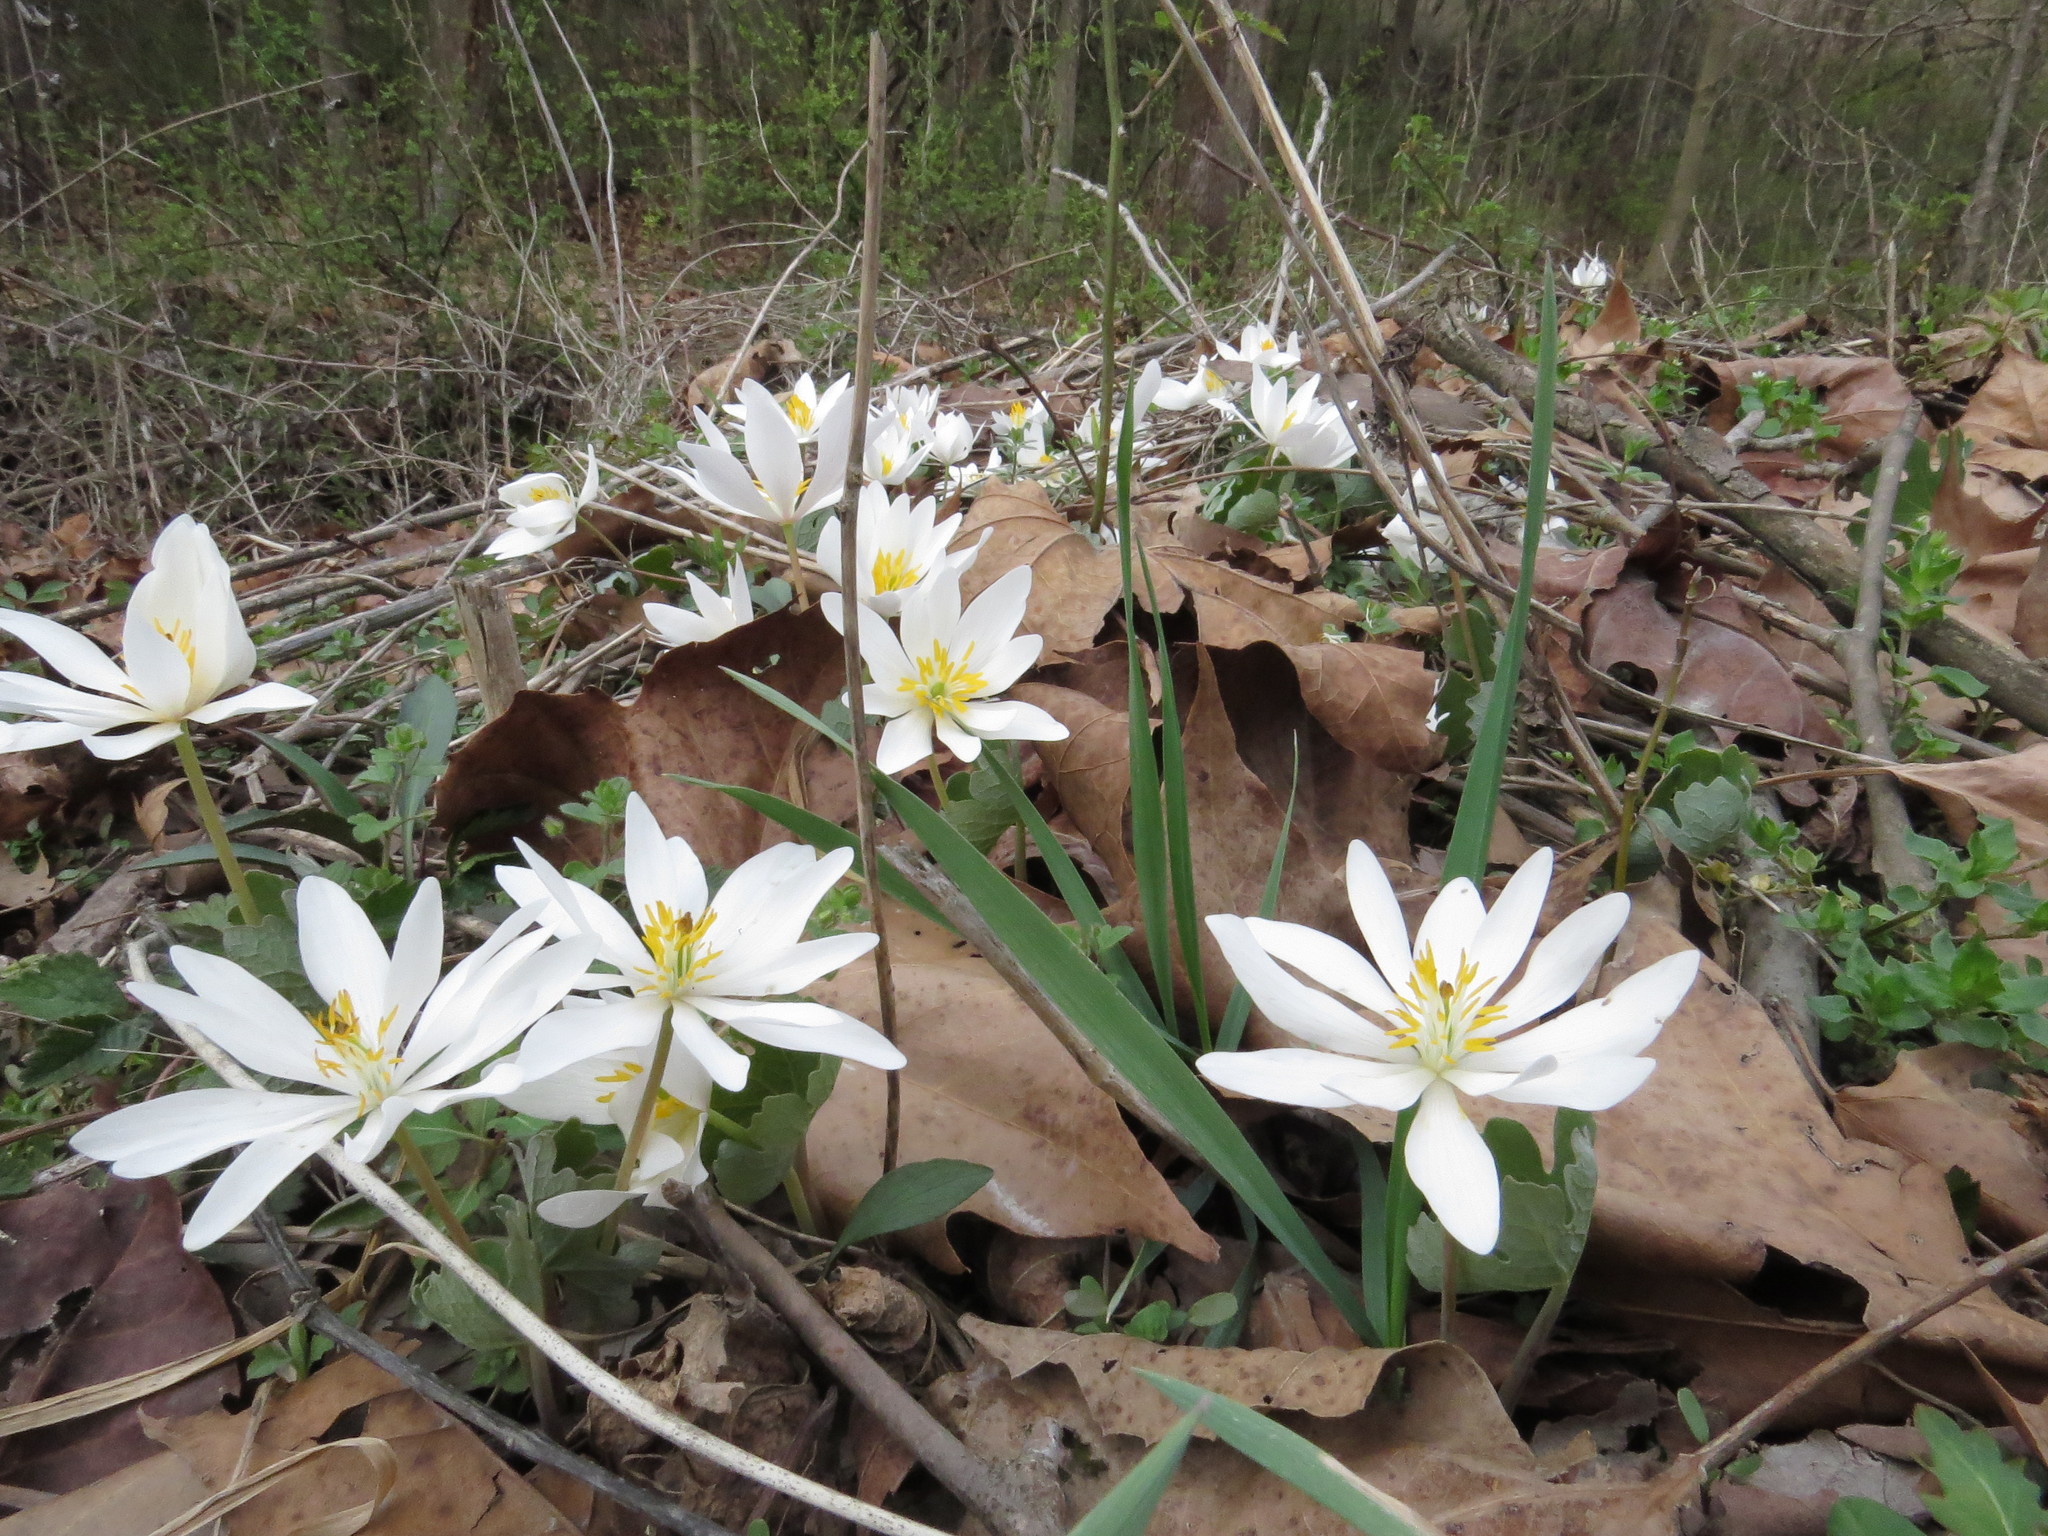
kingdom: Plantae
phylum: Tracheophyta
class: Magnoliopsida
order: Ranunculales
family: Papaveraceae
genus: Sanguinaria
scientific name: Sanguinaria canadensis
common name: Bloodroot
